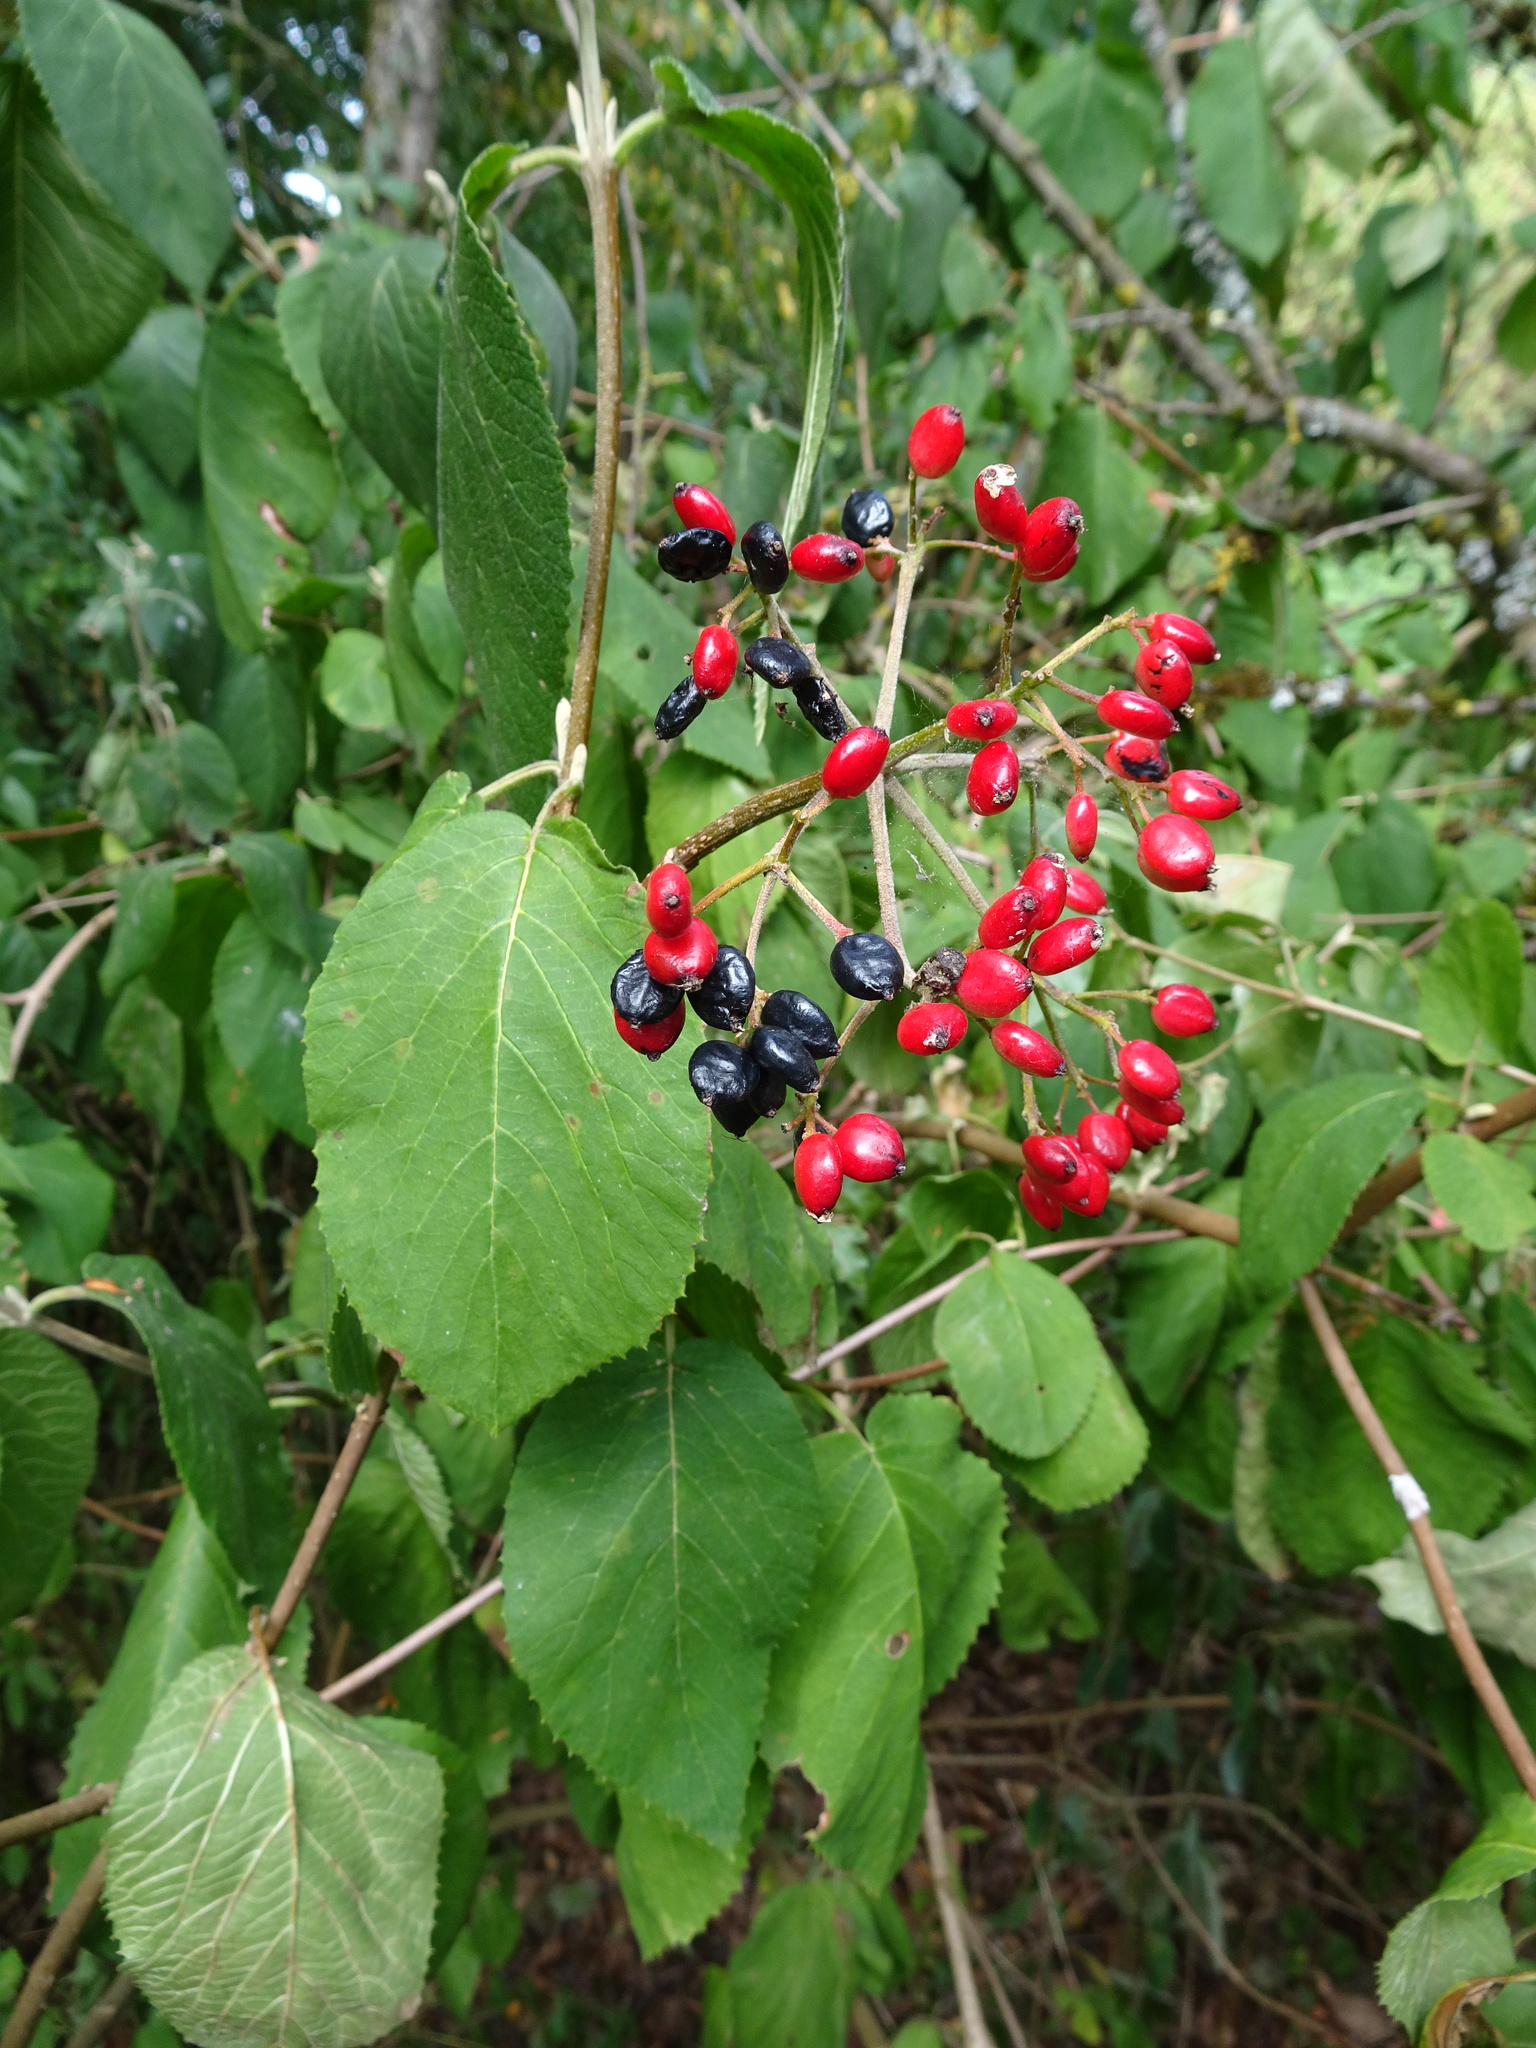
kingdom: Plantae
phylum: Tracheophyta
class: Magnoliopsida
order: Dipsacales
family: Viburnaceae
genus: Viburnum
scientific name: Viburnum lantana
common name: Wayfaring tree
